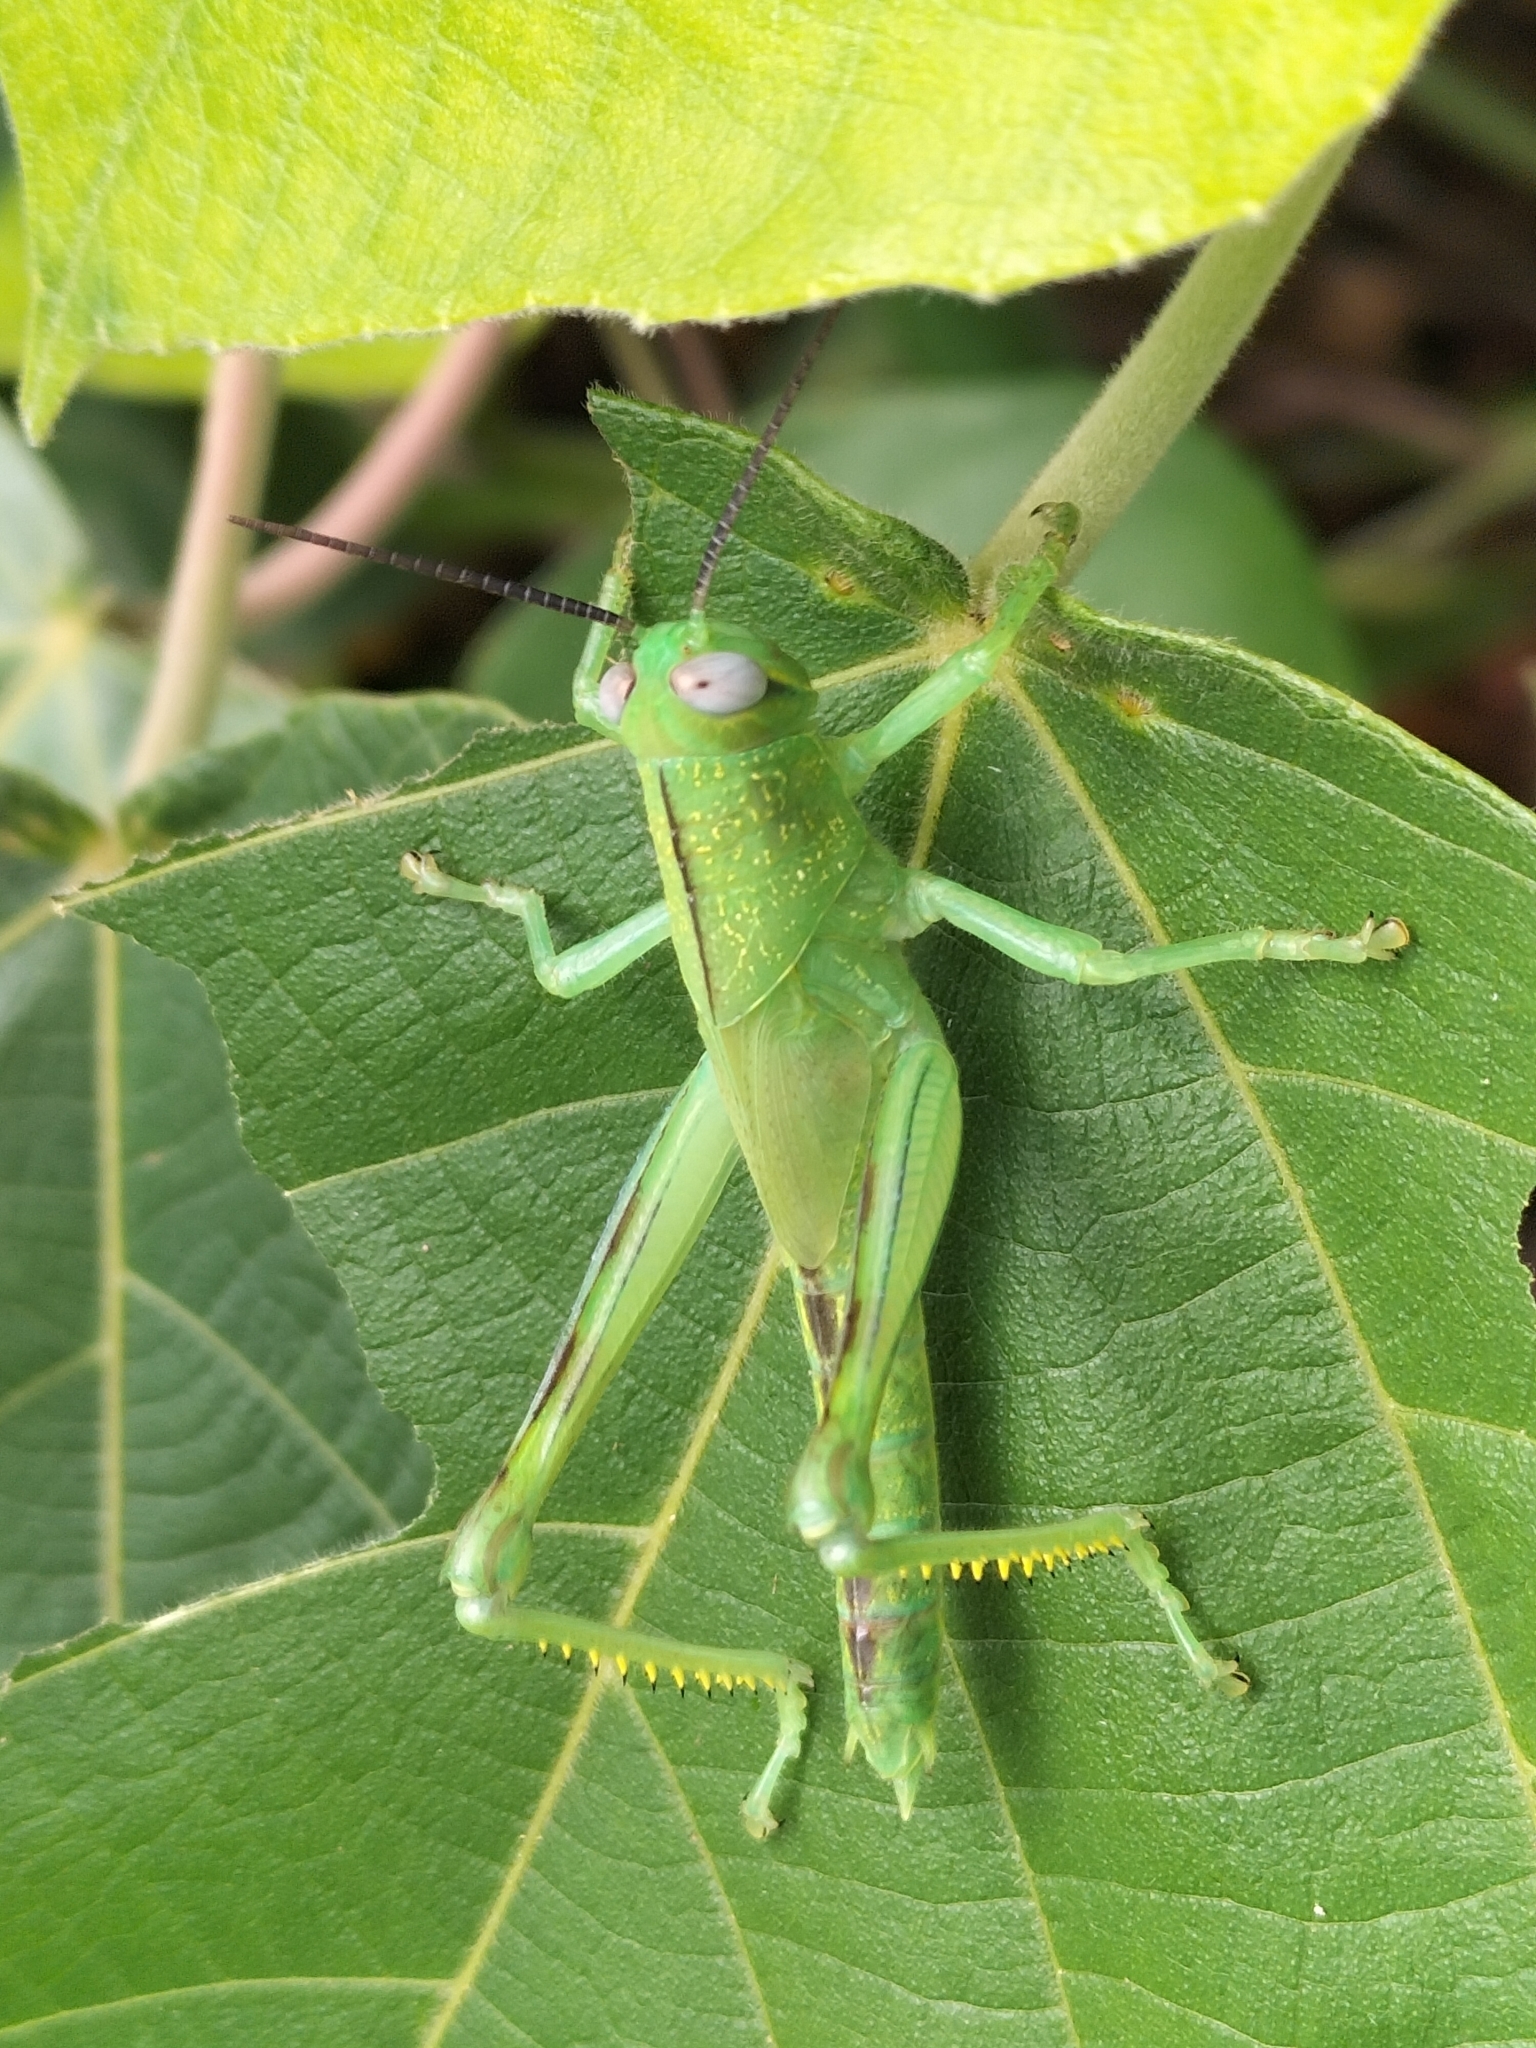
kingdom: Animalia
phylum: Arthropoda
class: Insecta
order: Orthoptera
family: Acrididae
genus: Valanga
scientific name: Valanga irregularis
